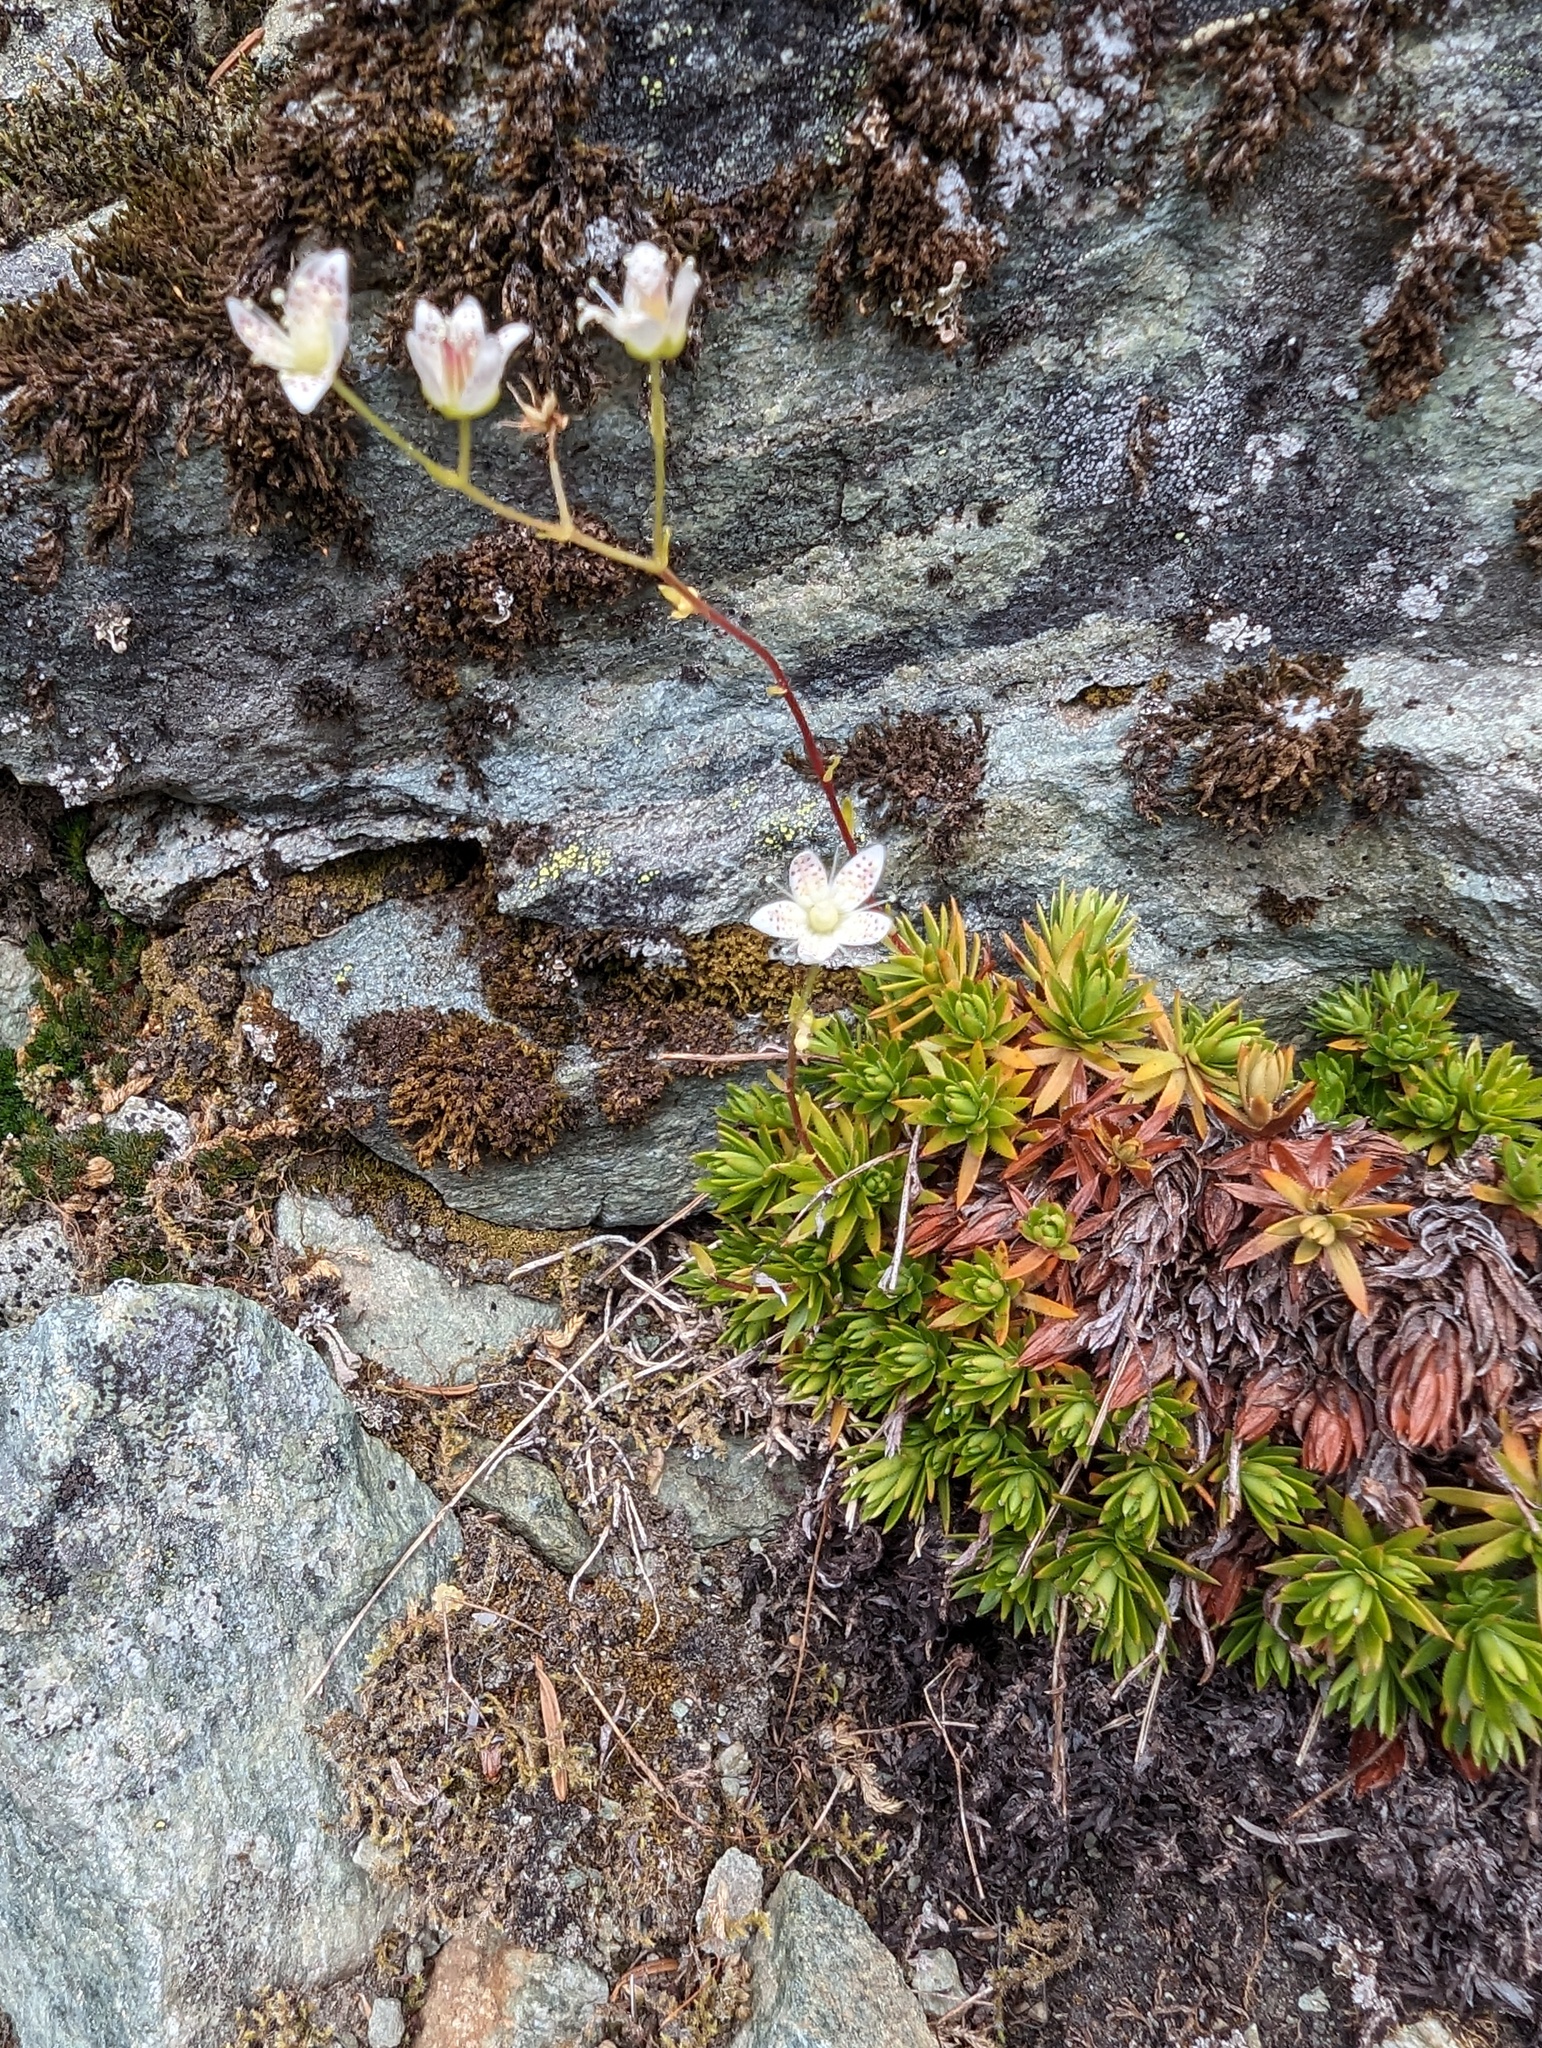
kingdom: Plantae
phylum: Tracheophyta
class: Magnoliopsida
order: Saxifragales
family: Saxifragaceae
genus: Saxifraga
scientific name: Saxifraga bronchialis
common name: Matted saxifrage
